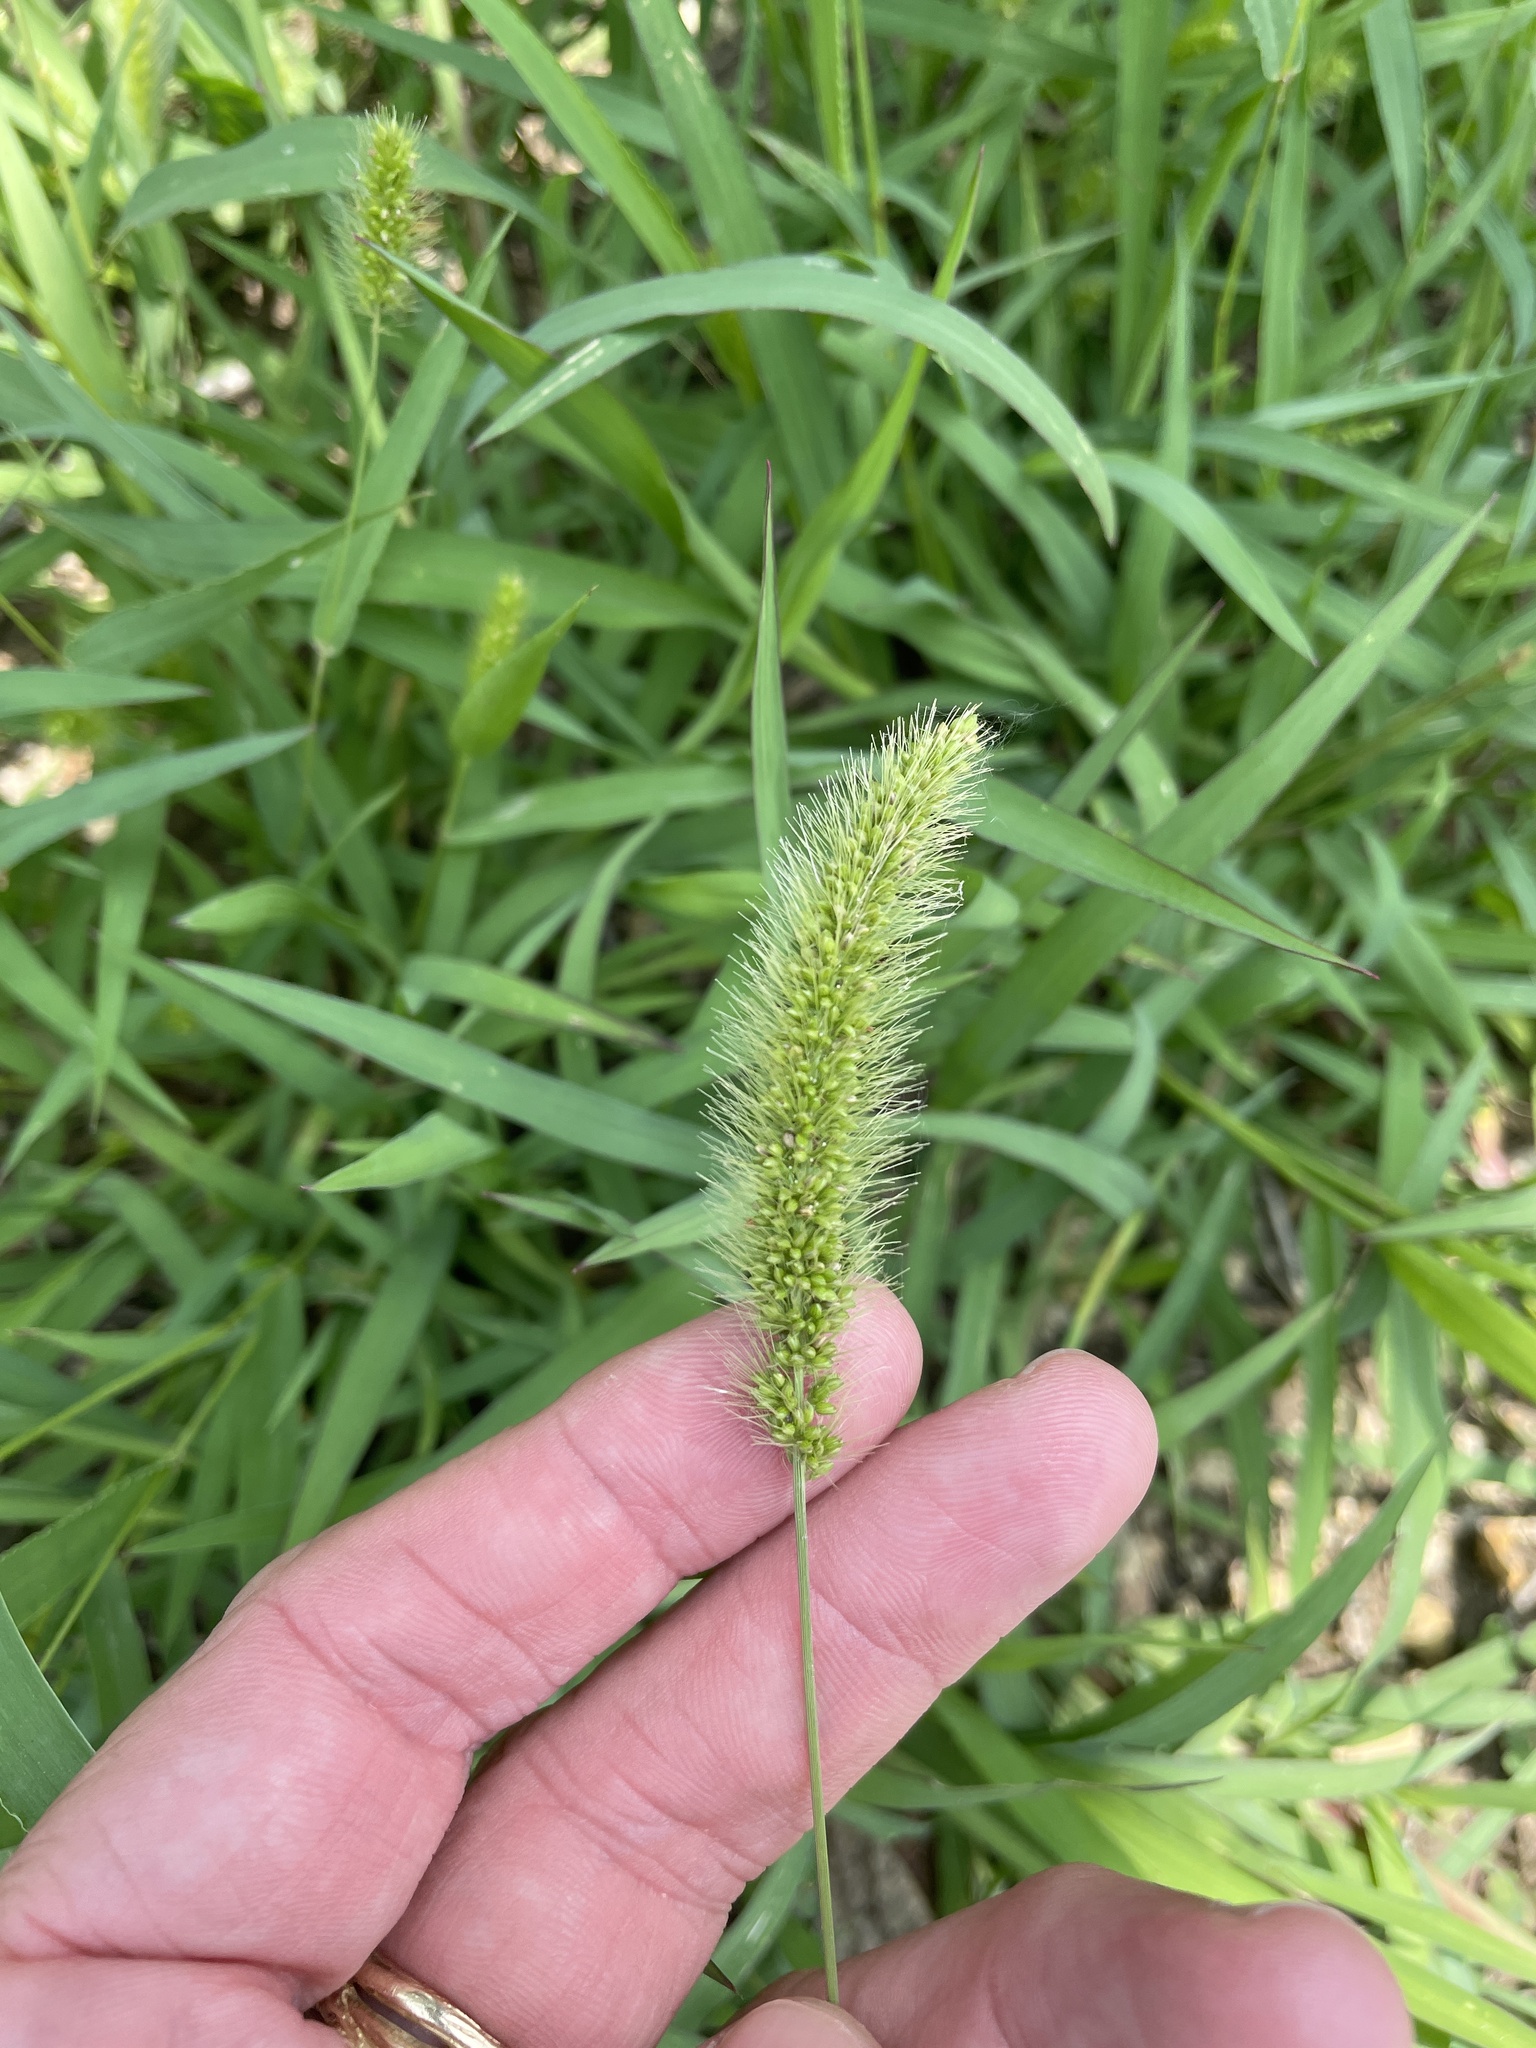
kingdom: Plantae
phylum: Tracheophyta
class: Liliopsida
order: Poales
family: Poaceae
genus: Setaria
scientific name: Setaria viridis
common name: Green bristlegrass
